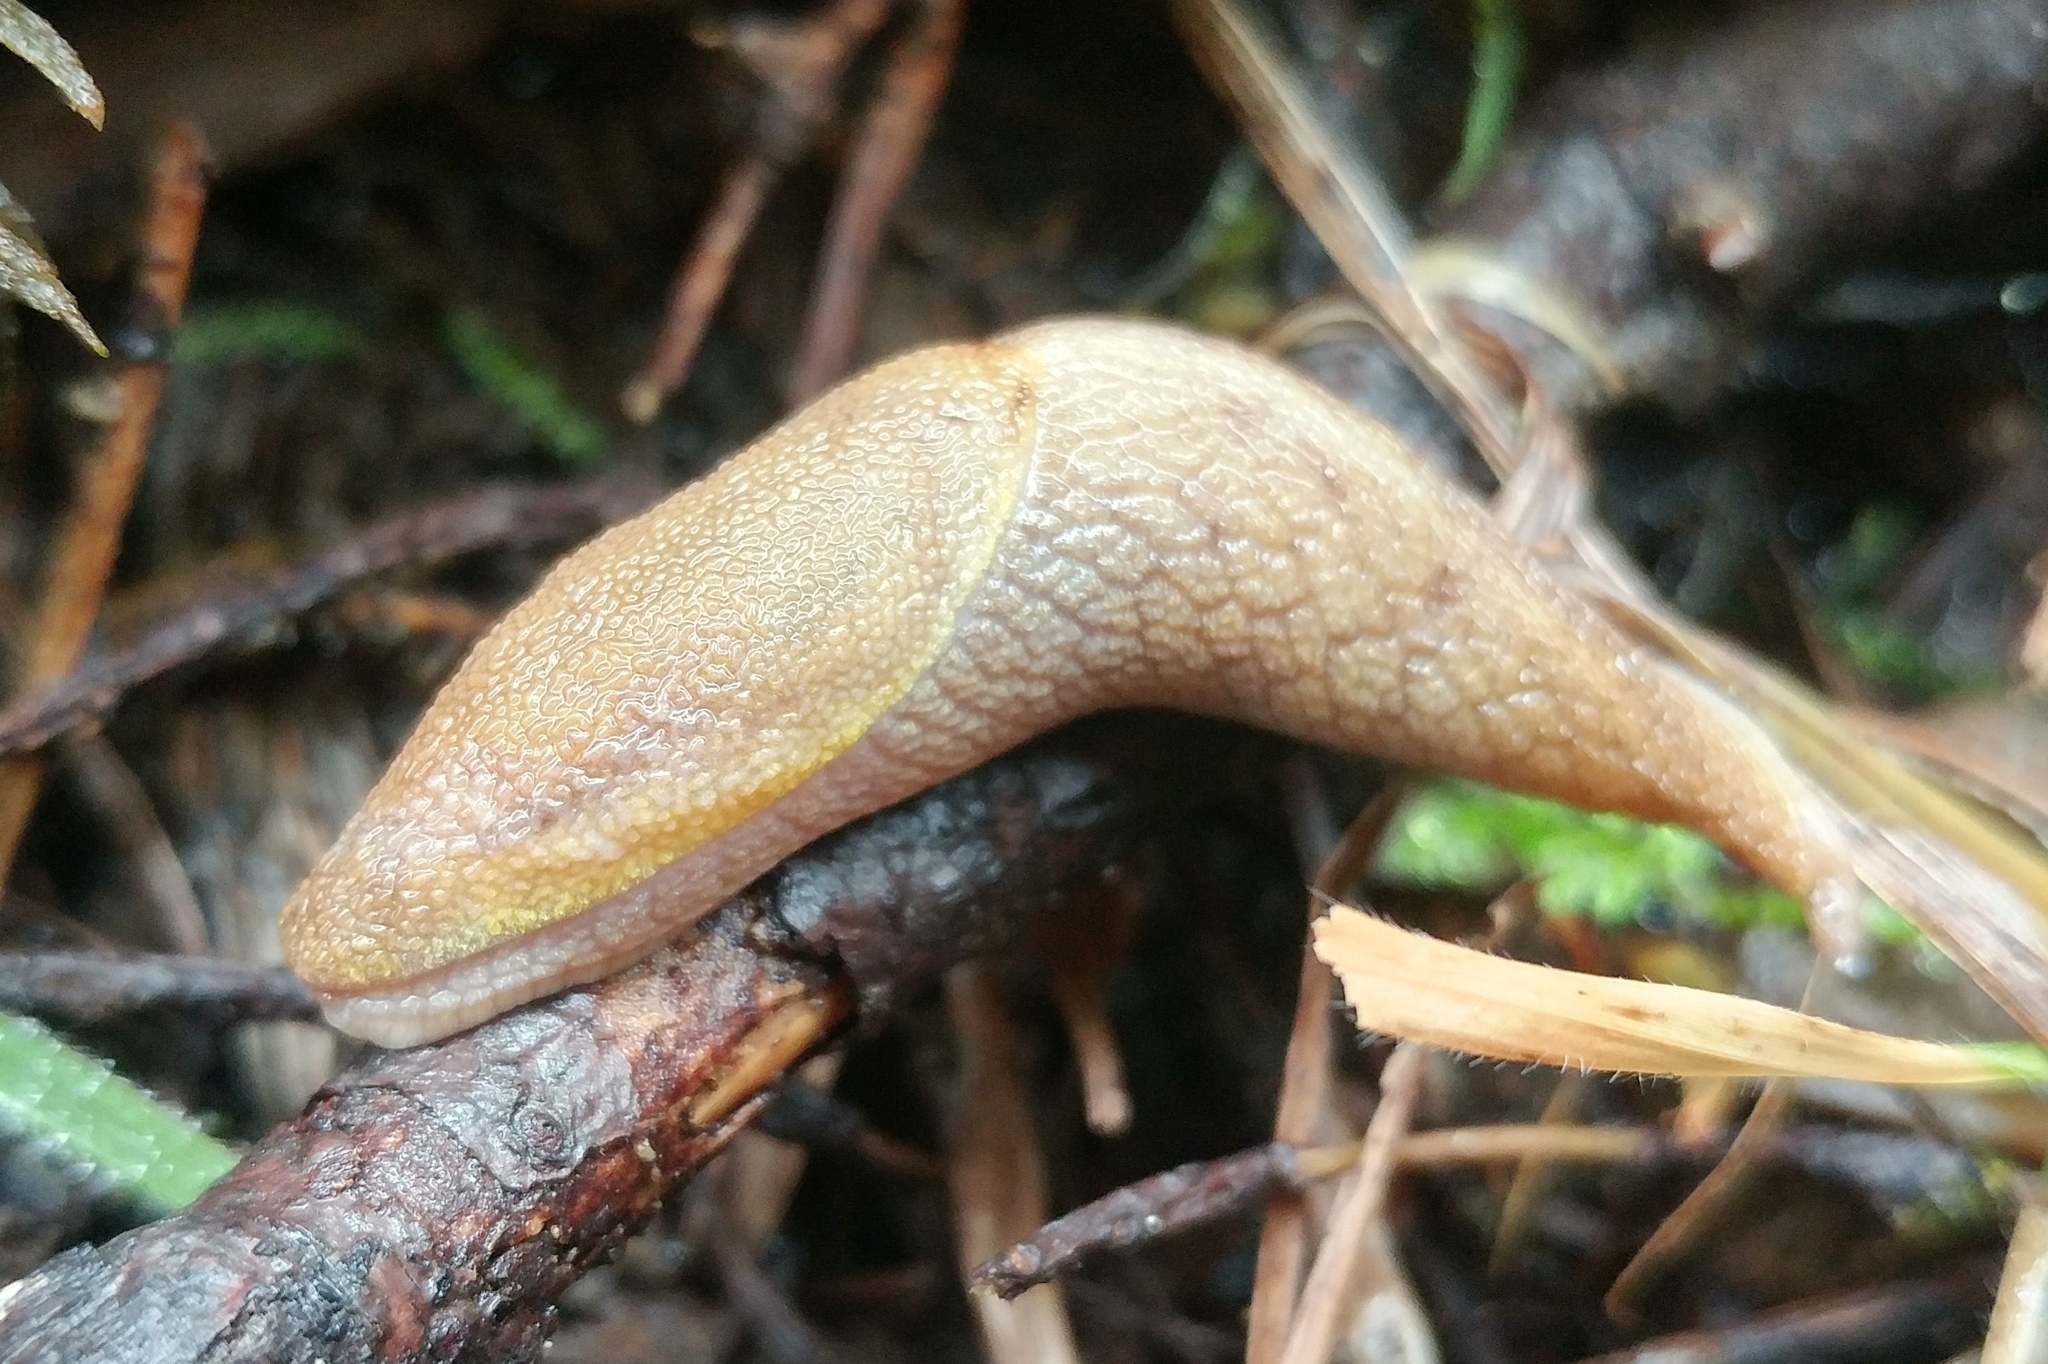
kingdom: Animalia
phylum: Mollusca
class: Gastropoda
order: Stylommatophora
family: Ariolimacidae
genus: Prophysaon
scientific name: Prophysaon foliolatum
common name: Yellow-bordered taildropper
